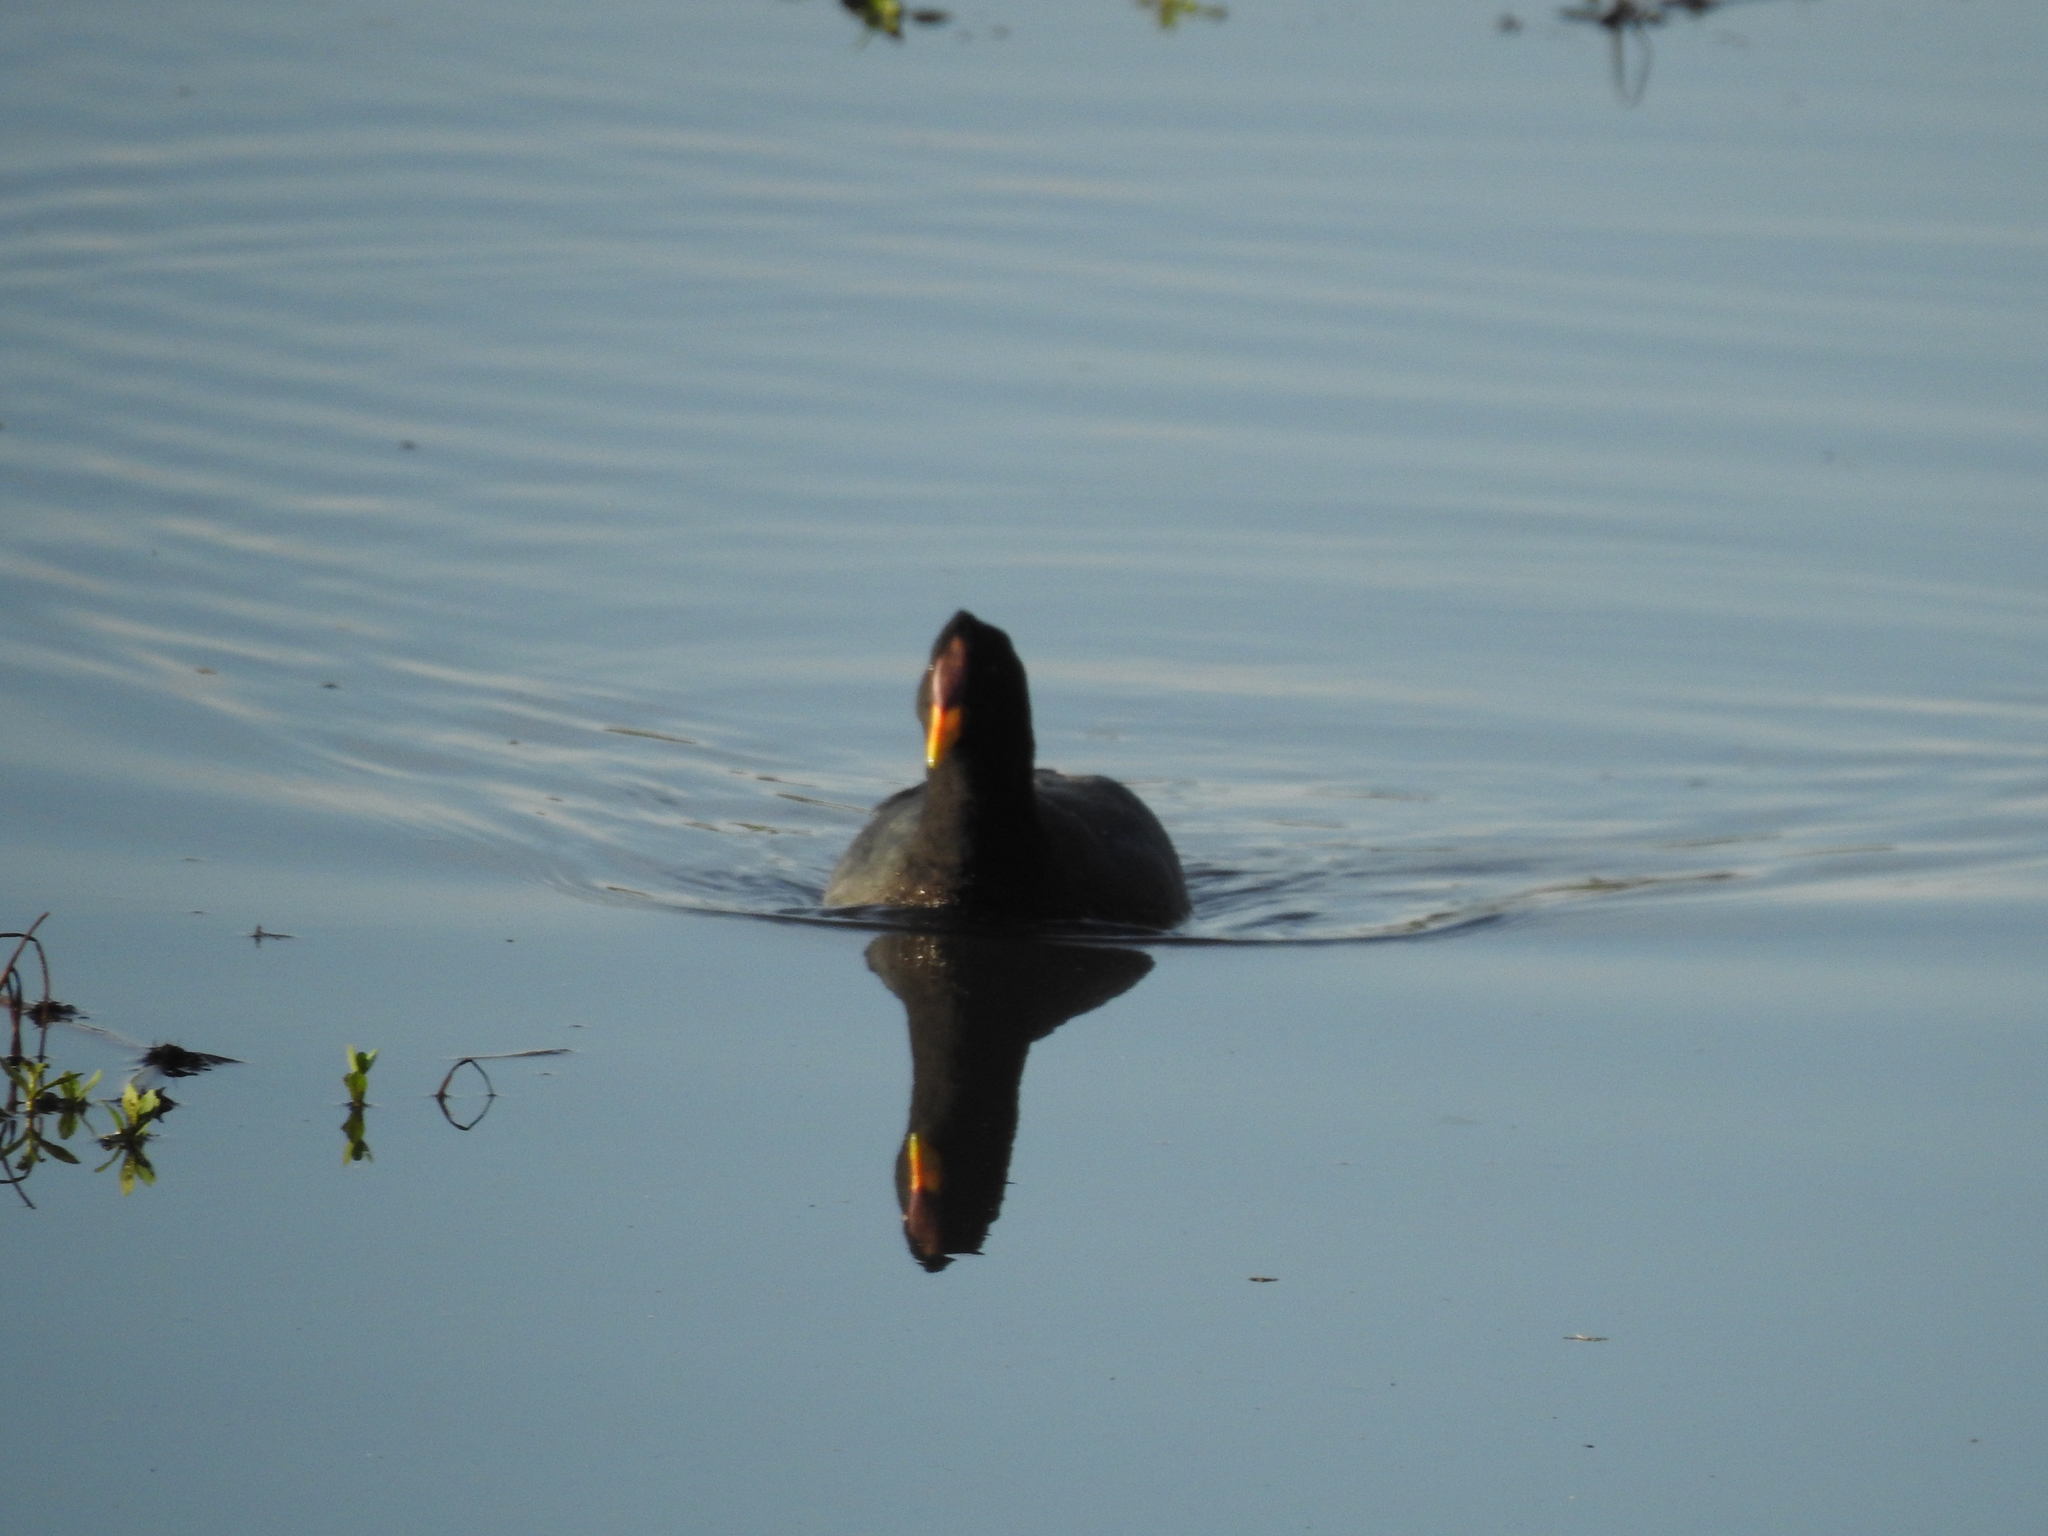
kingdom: Animalia
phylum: Chordata
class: Aves
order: Gruiformes
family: Rallidae
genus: Fulica
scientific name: Fulica rufifrons
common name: Red-fronted coot
